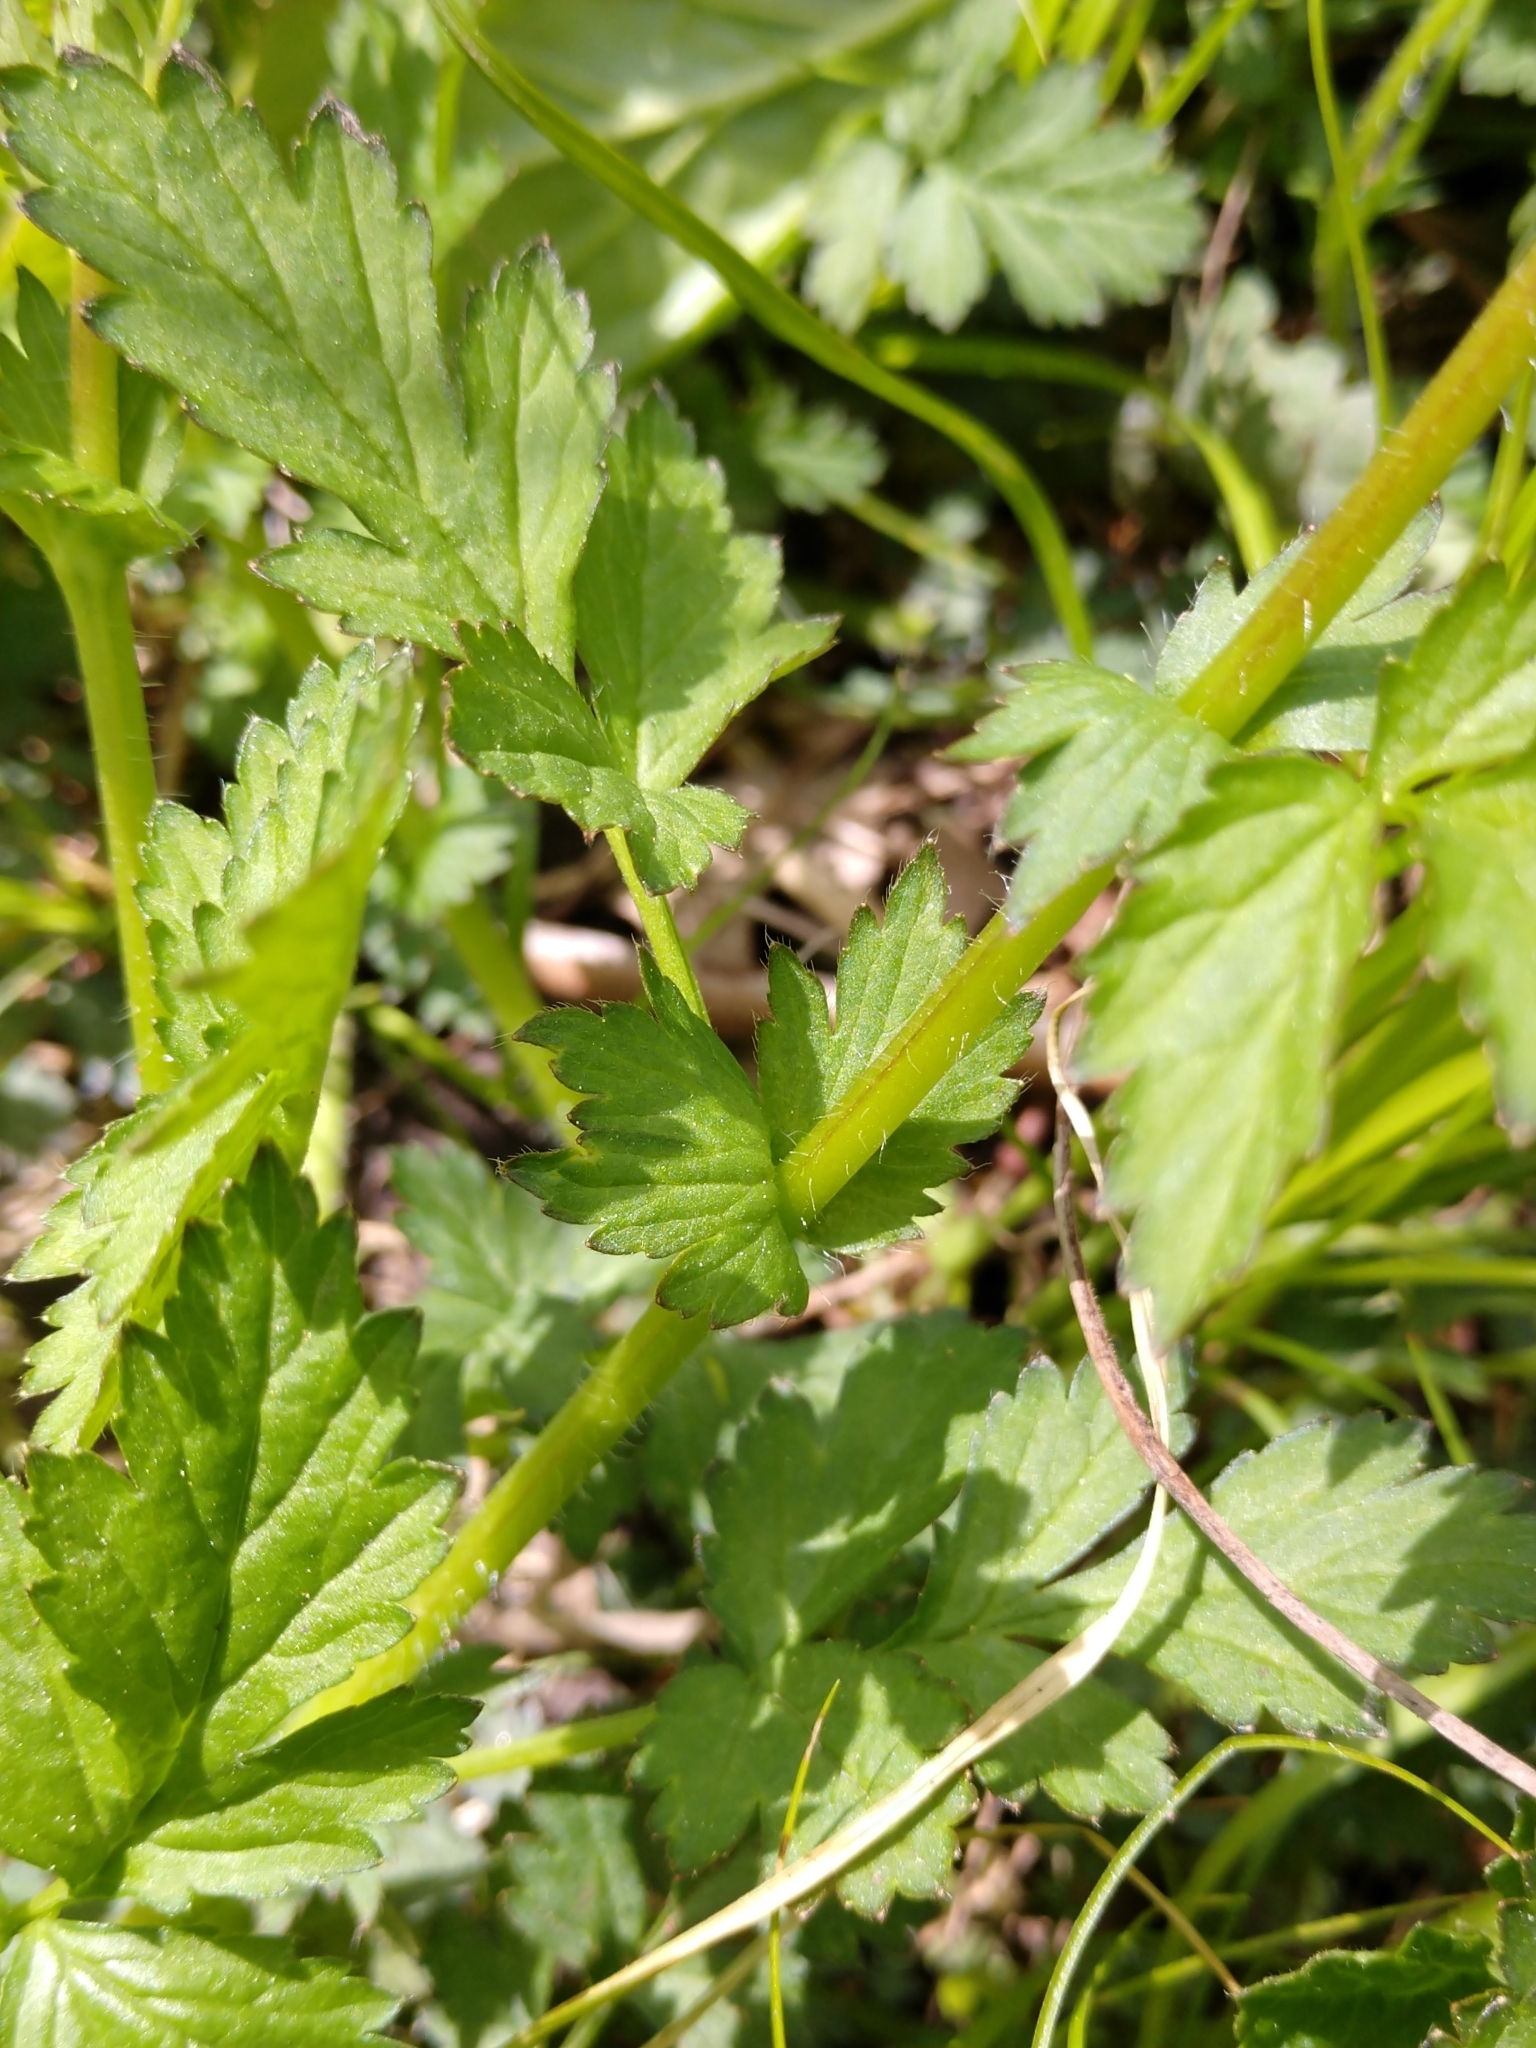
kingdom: Plantae
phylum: Tracheophyta
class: Magnoliopsida
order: Rosales
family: Rosaceae
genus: Geum
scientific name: Geum vernum
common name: Spring avens
